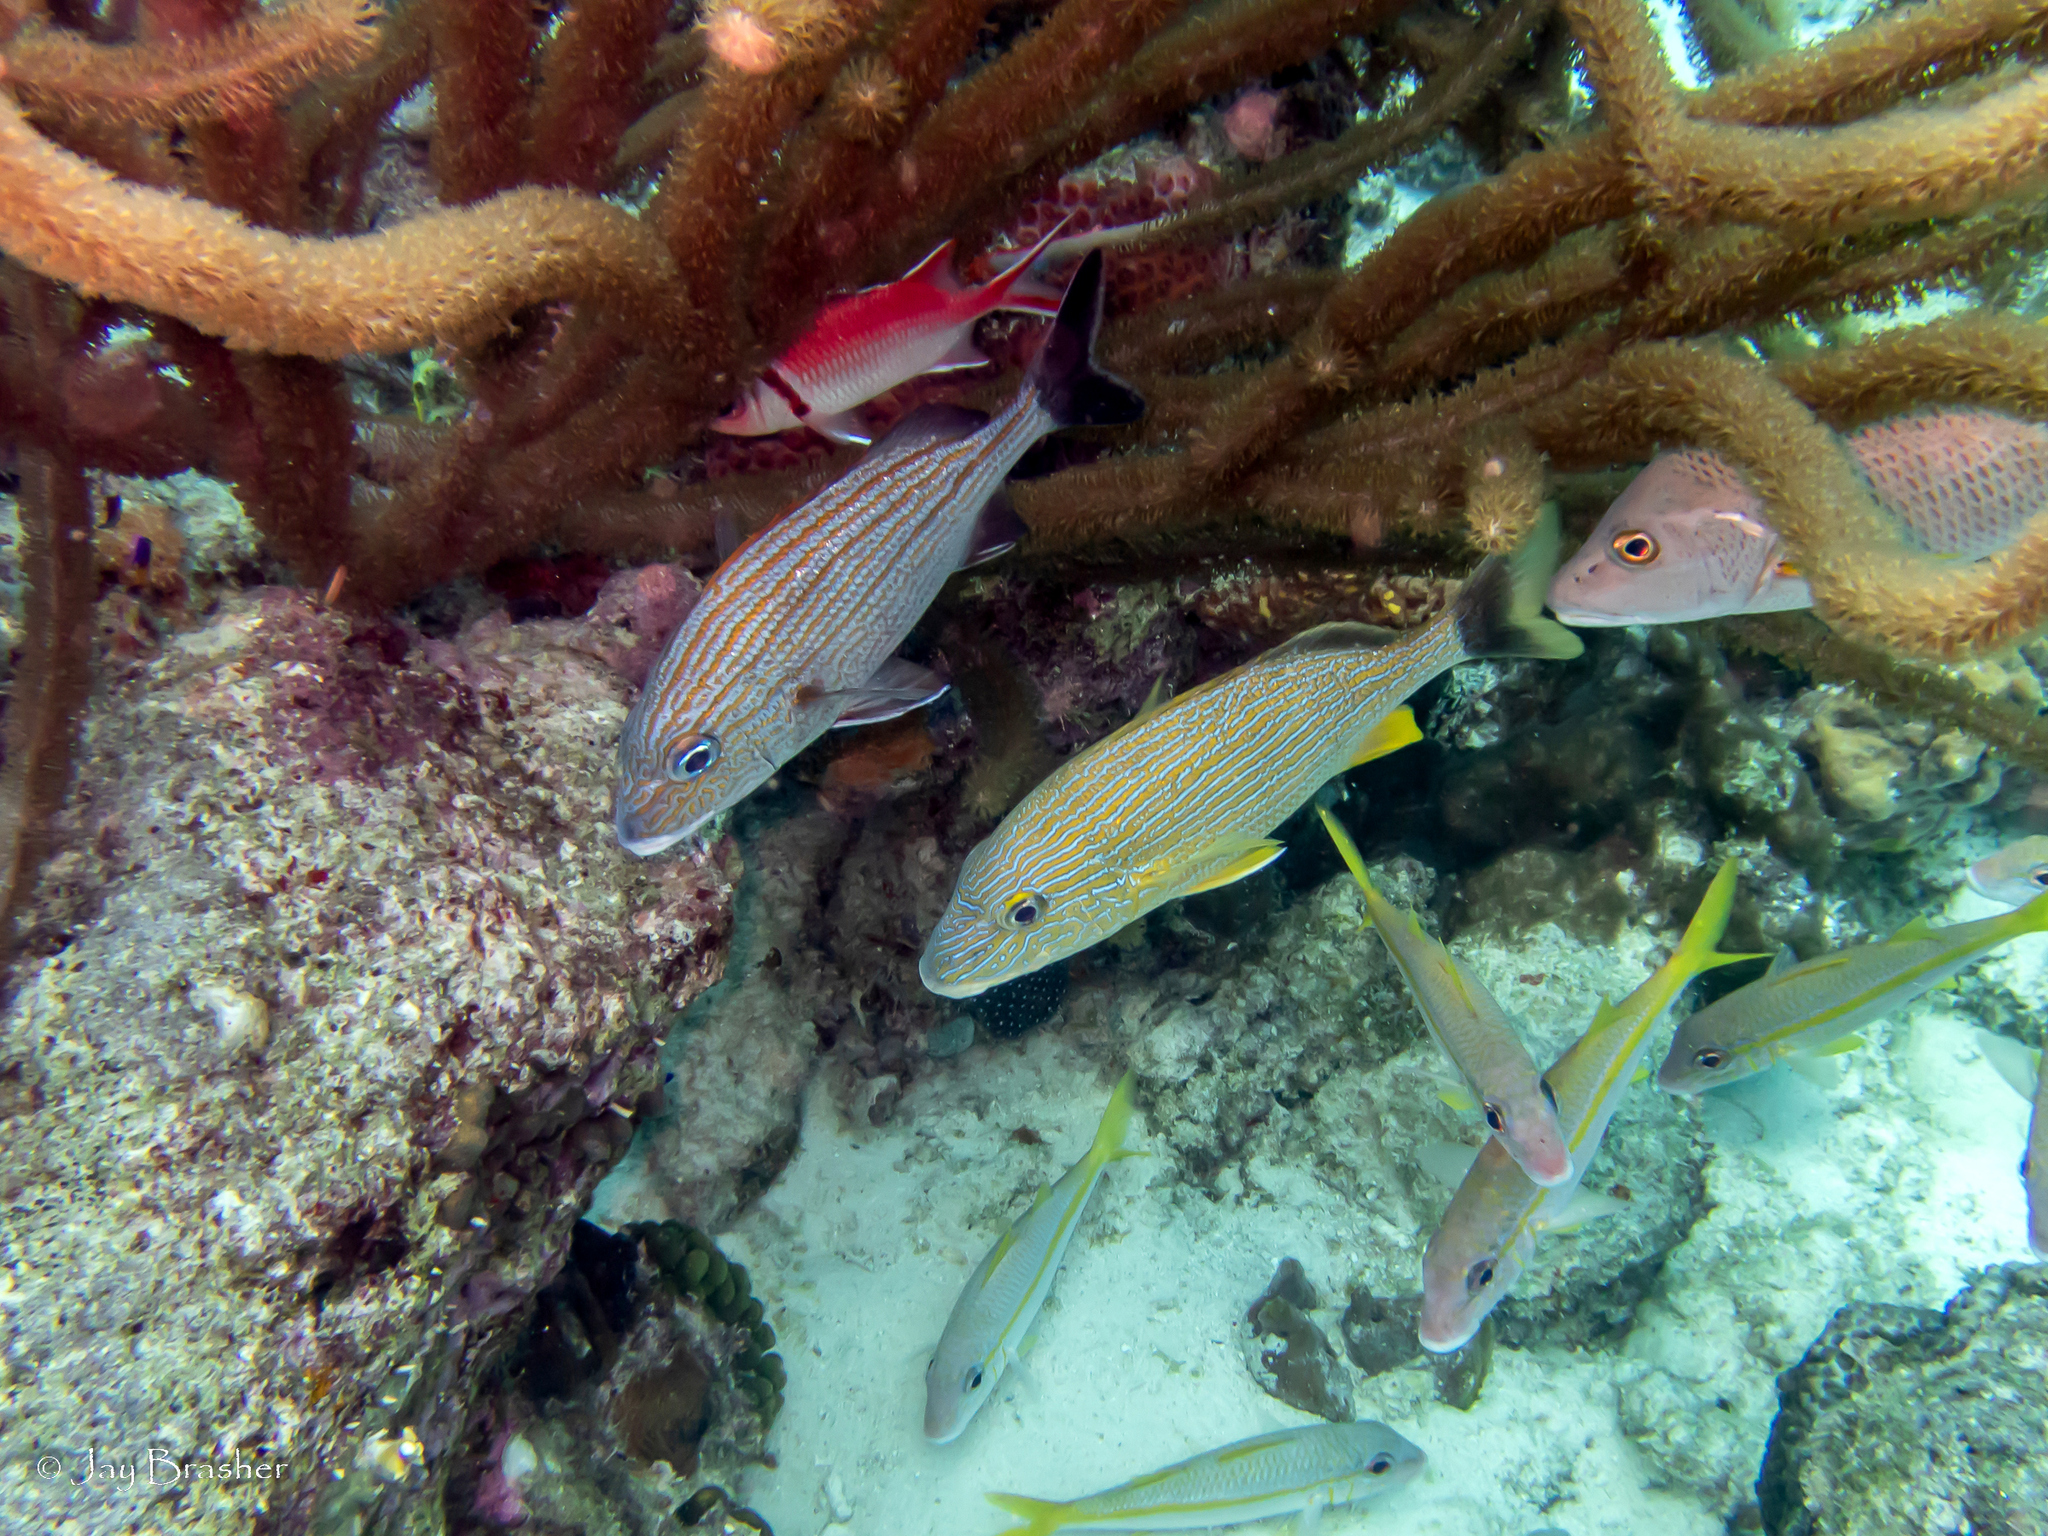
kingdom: Animalia
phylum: Chordata
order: Perciformes
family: Mullidae
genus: Mulloidichthys
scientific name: Mulloidichthys martinicus
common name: Yellow goatfish
